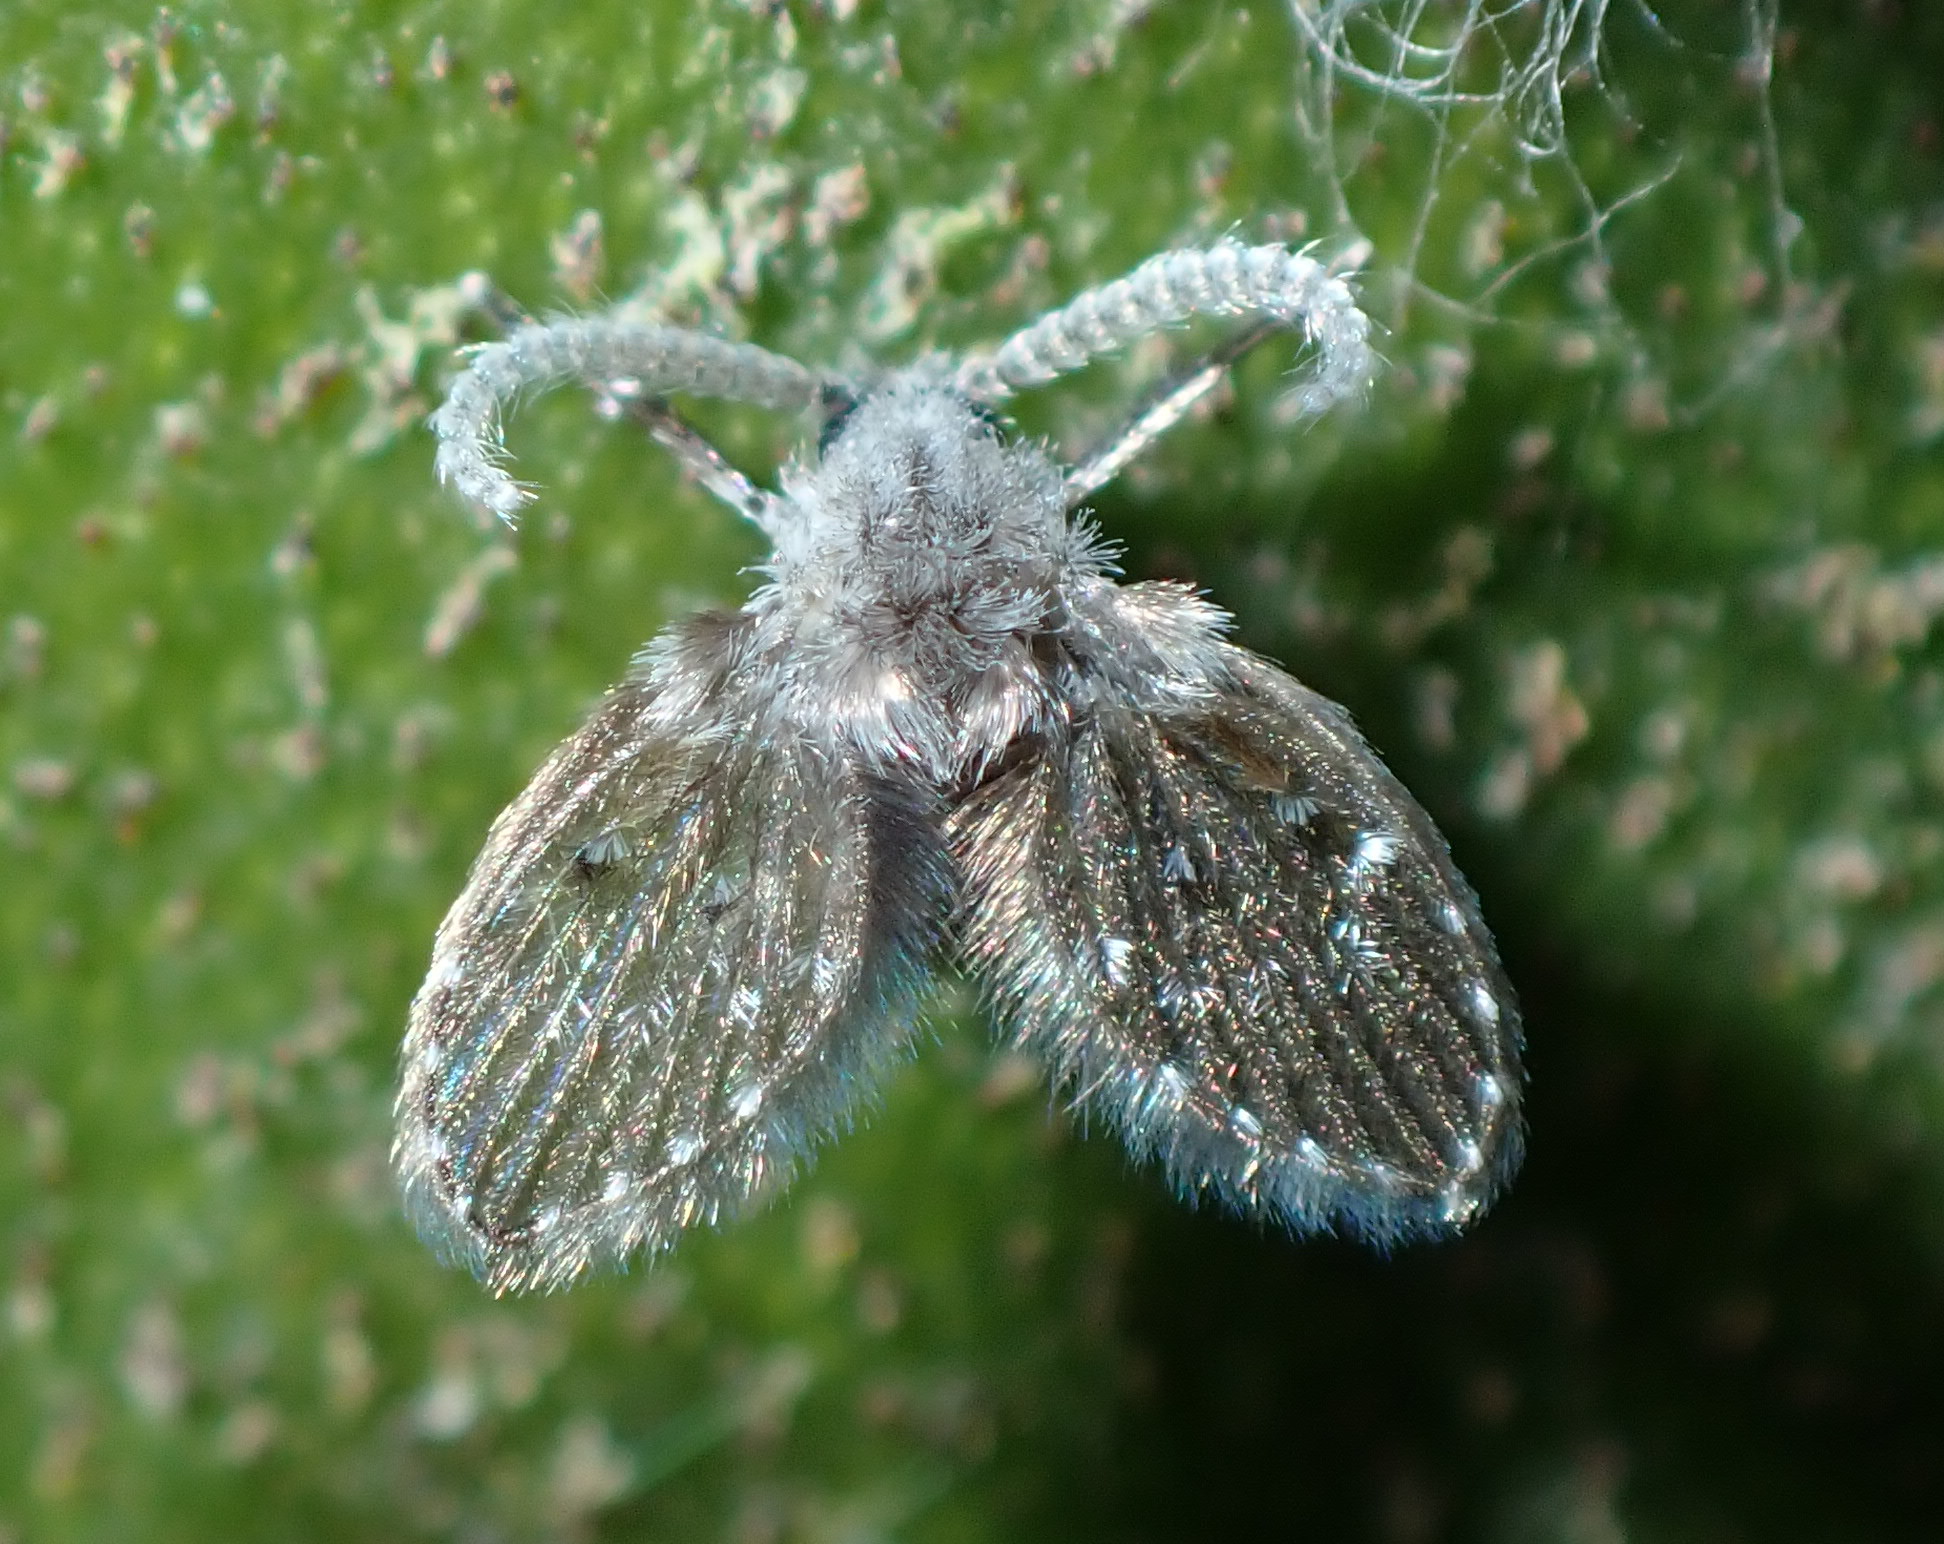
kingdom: Animalia
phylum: Arthropoda
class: Insecta
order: Diptera
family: Psychodidae
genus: Clogmia
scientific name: Clogmia albipunctatus
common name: White-spotted moth fly
